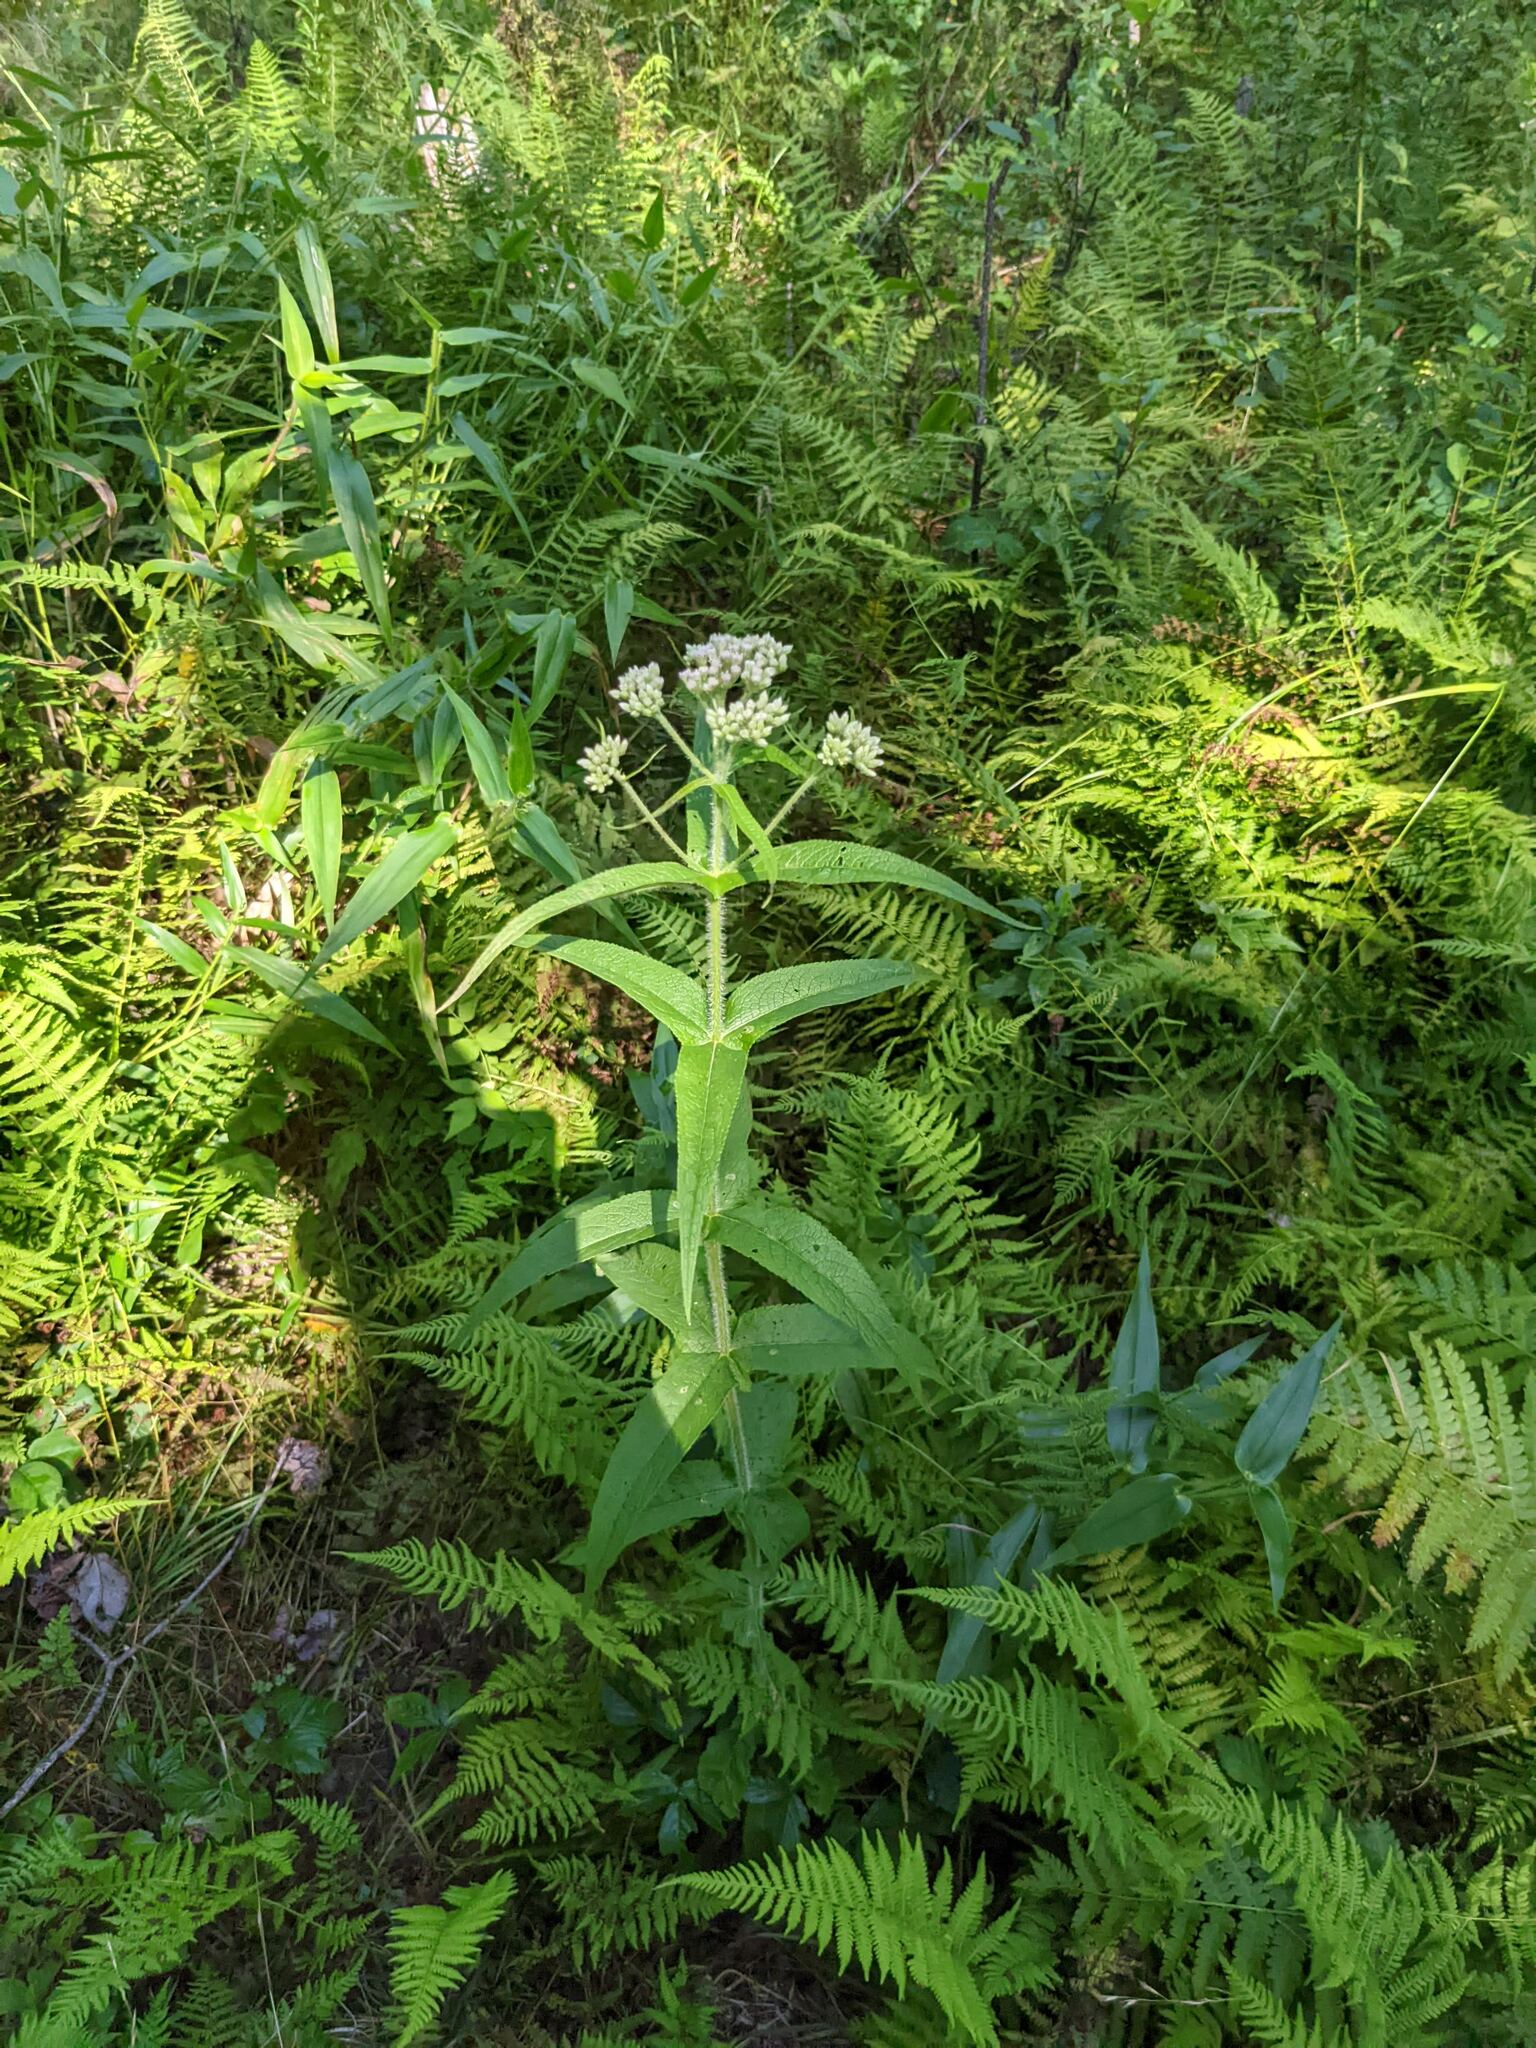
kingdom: Plantae
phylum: Tracheophyta
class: Magnoliopsida
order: Asterales
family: Asteraceae
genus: Eupatorium
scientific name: Eupatorium perfoliatum
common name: Boneset
